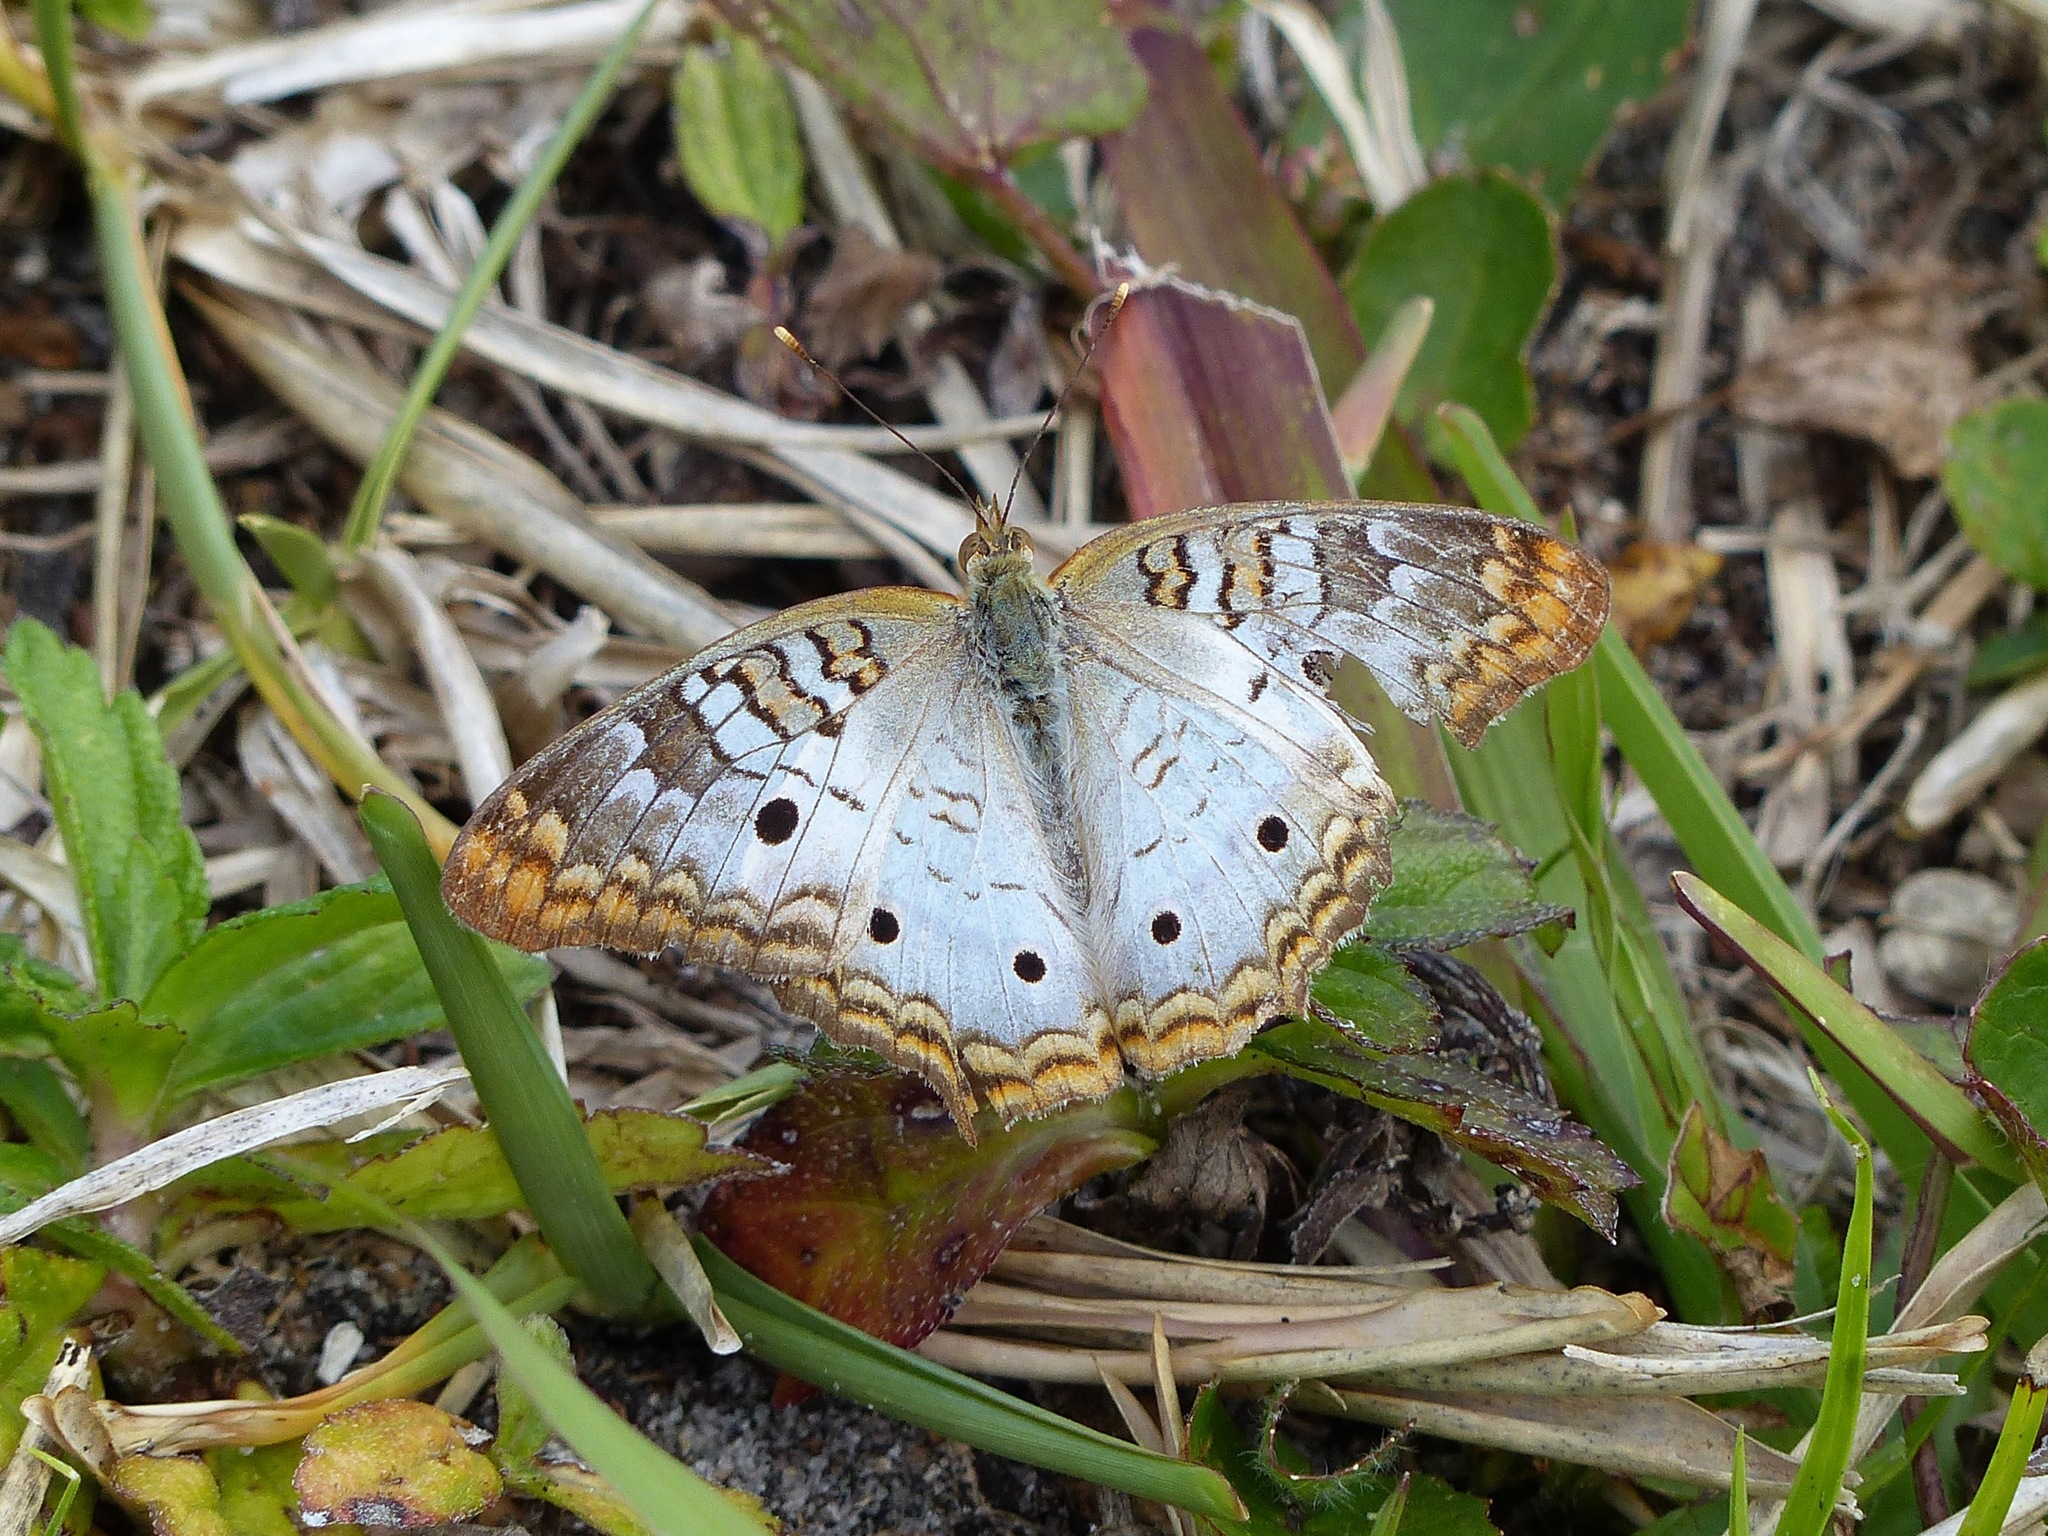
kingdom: Animalia
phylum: Arthropoda
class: Insecta
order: Lepidoptera
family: Nymphalidae
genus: Anartia
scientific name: Anartia jatrophae
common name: White peacock
